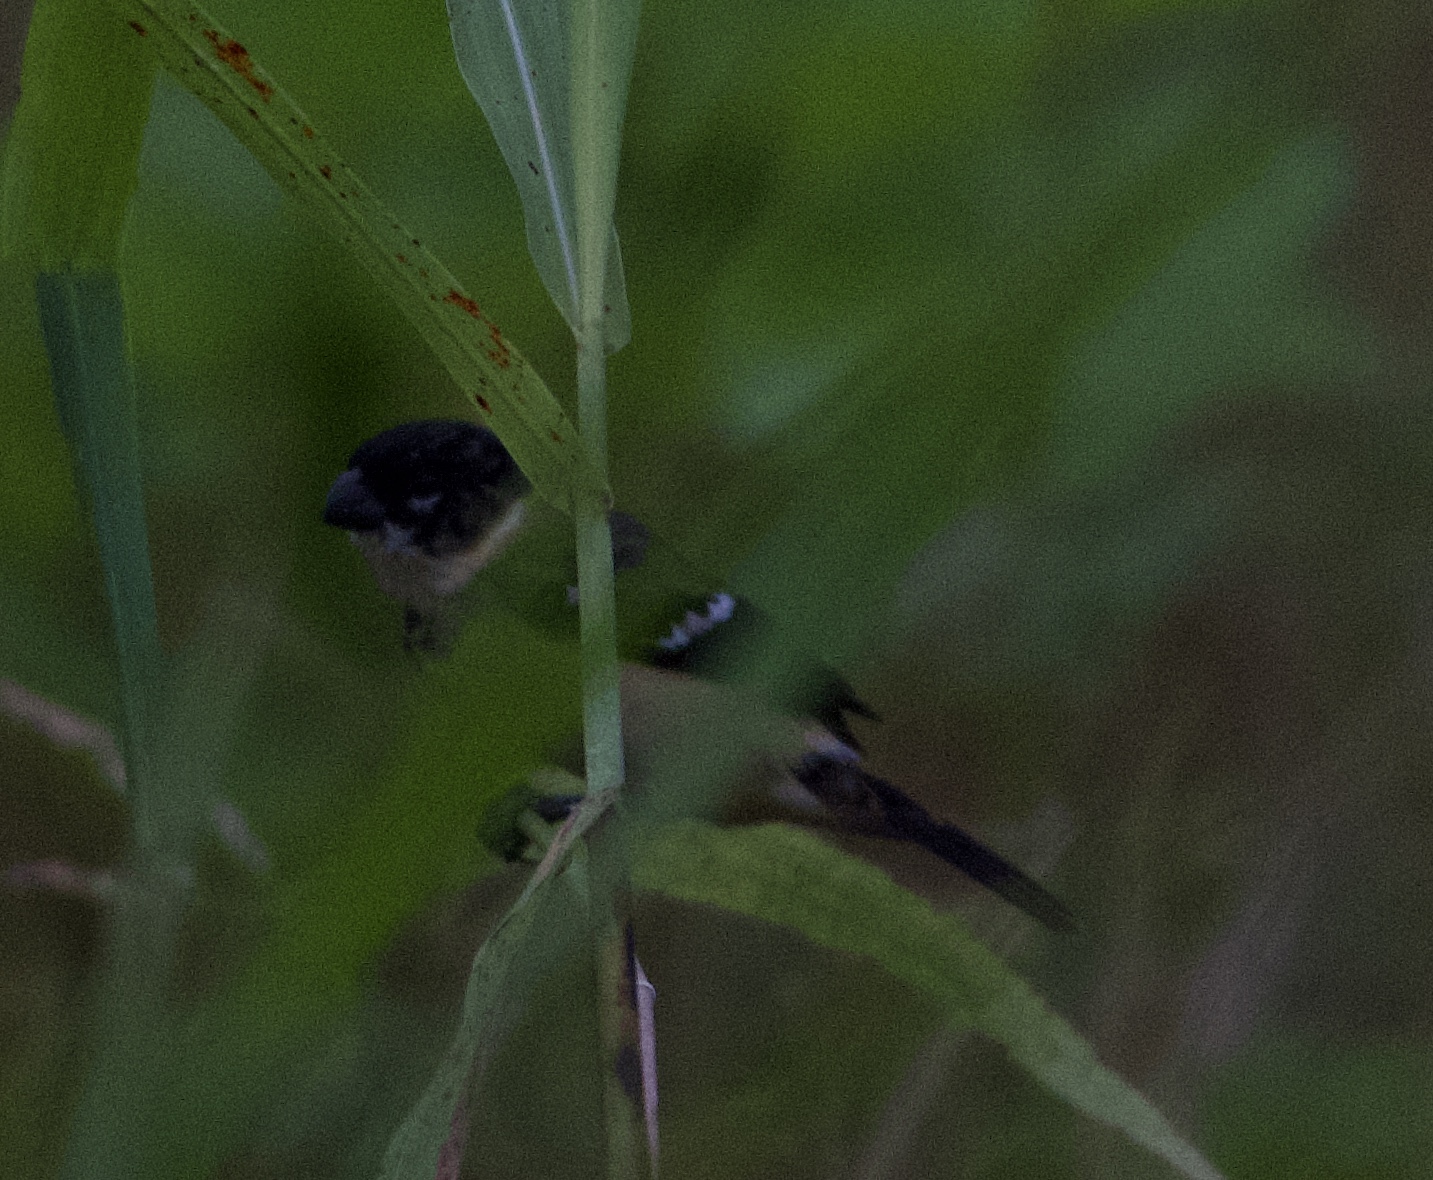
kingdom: Animalia
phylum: Chordata
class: Aves
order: Passeriformes
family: Thraupidae
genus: Sporophila
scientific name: Sporophila morelleti
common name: Morelet's seedeater
